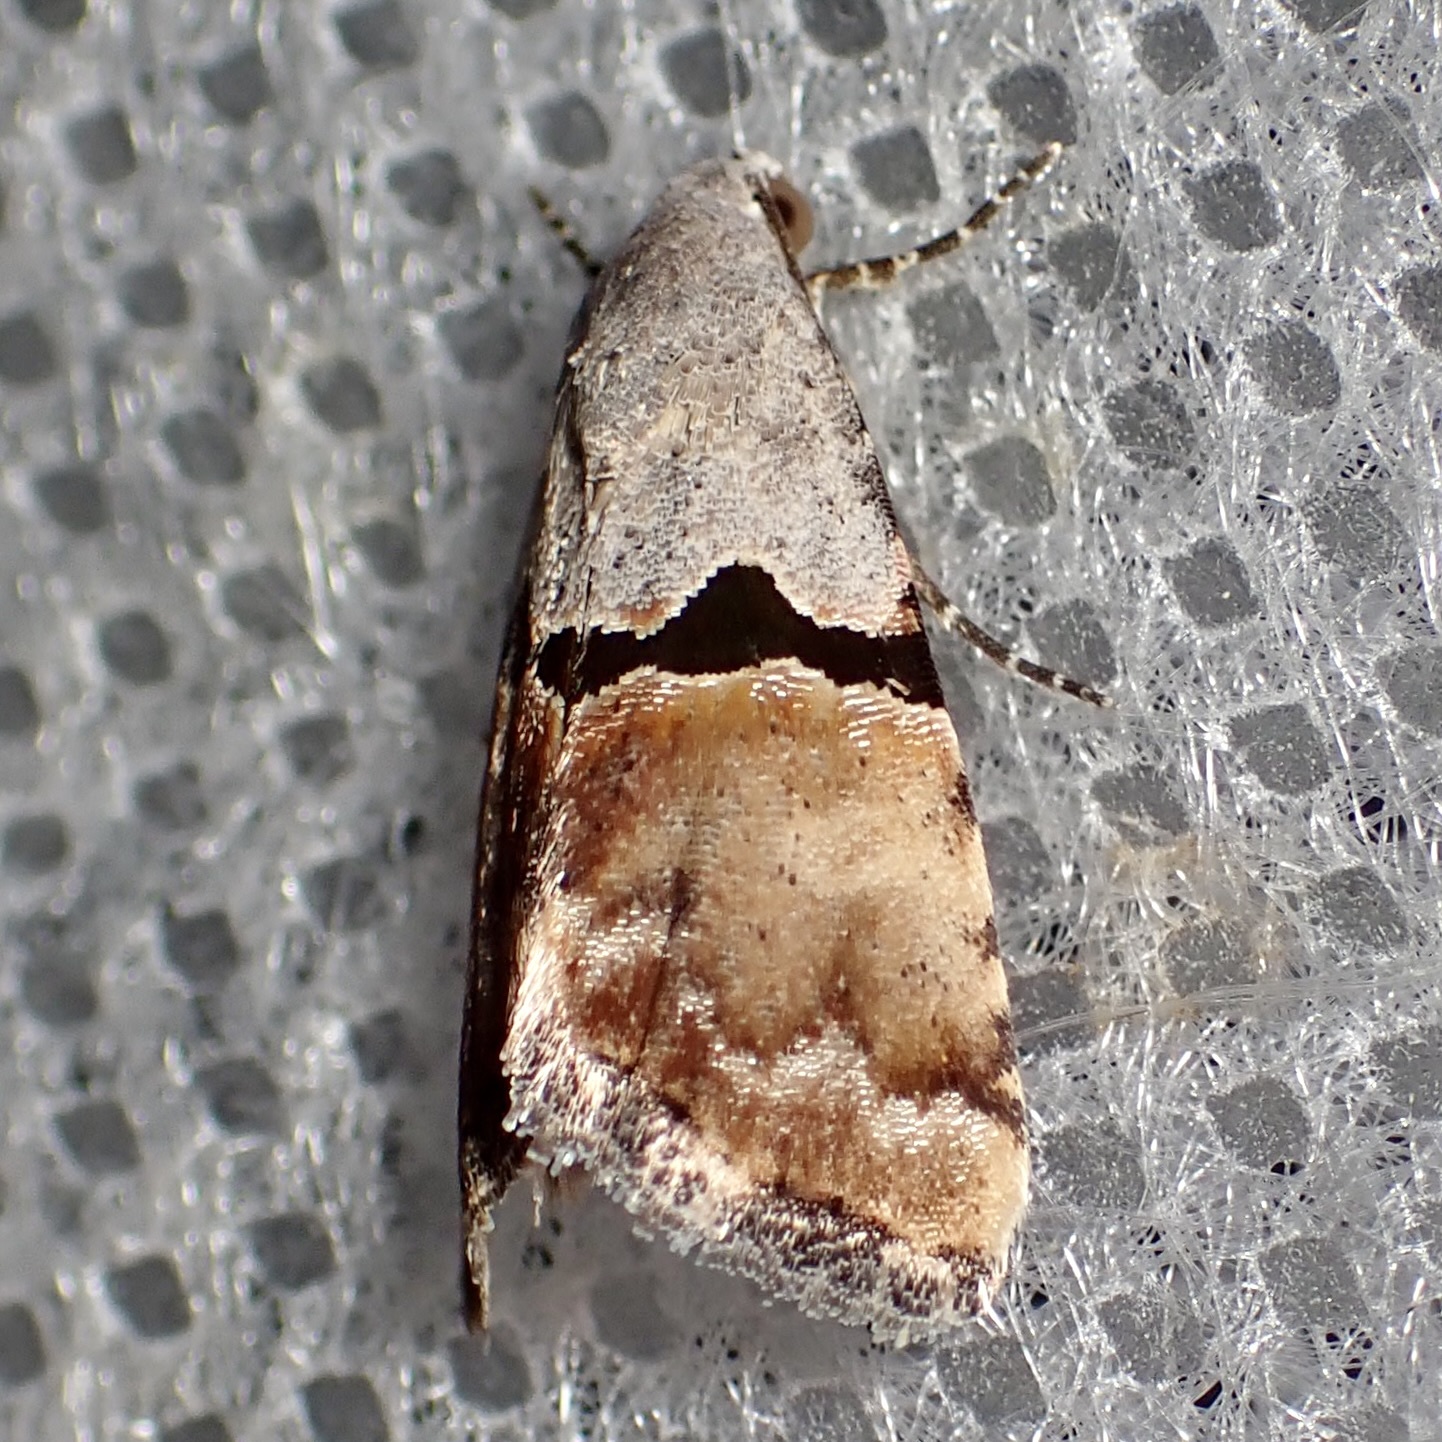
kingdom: Animalia
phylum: Arthropoda
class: Insecta
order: Lepidoptera
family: Noctuidae
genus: Cobubatha
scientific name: Cobubatha orthozona
